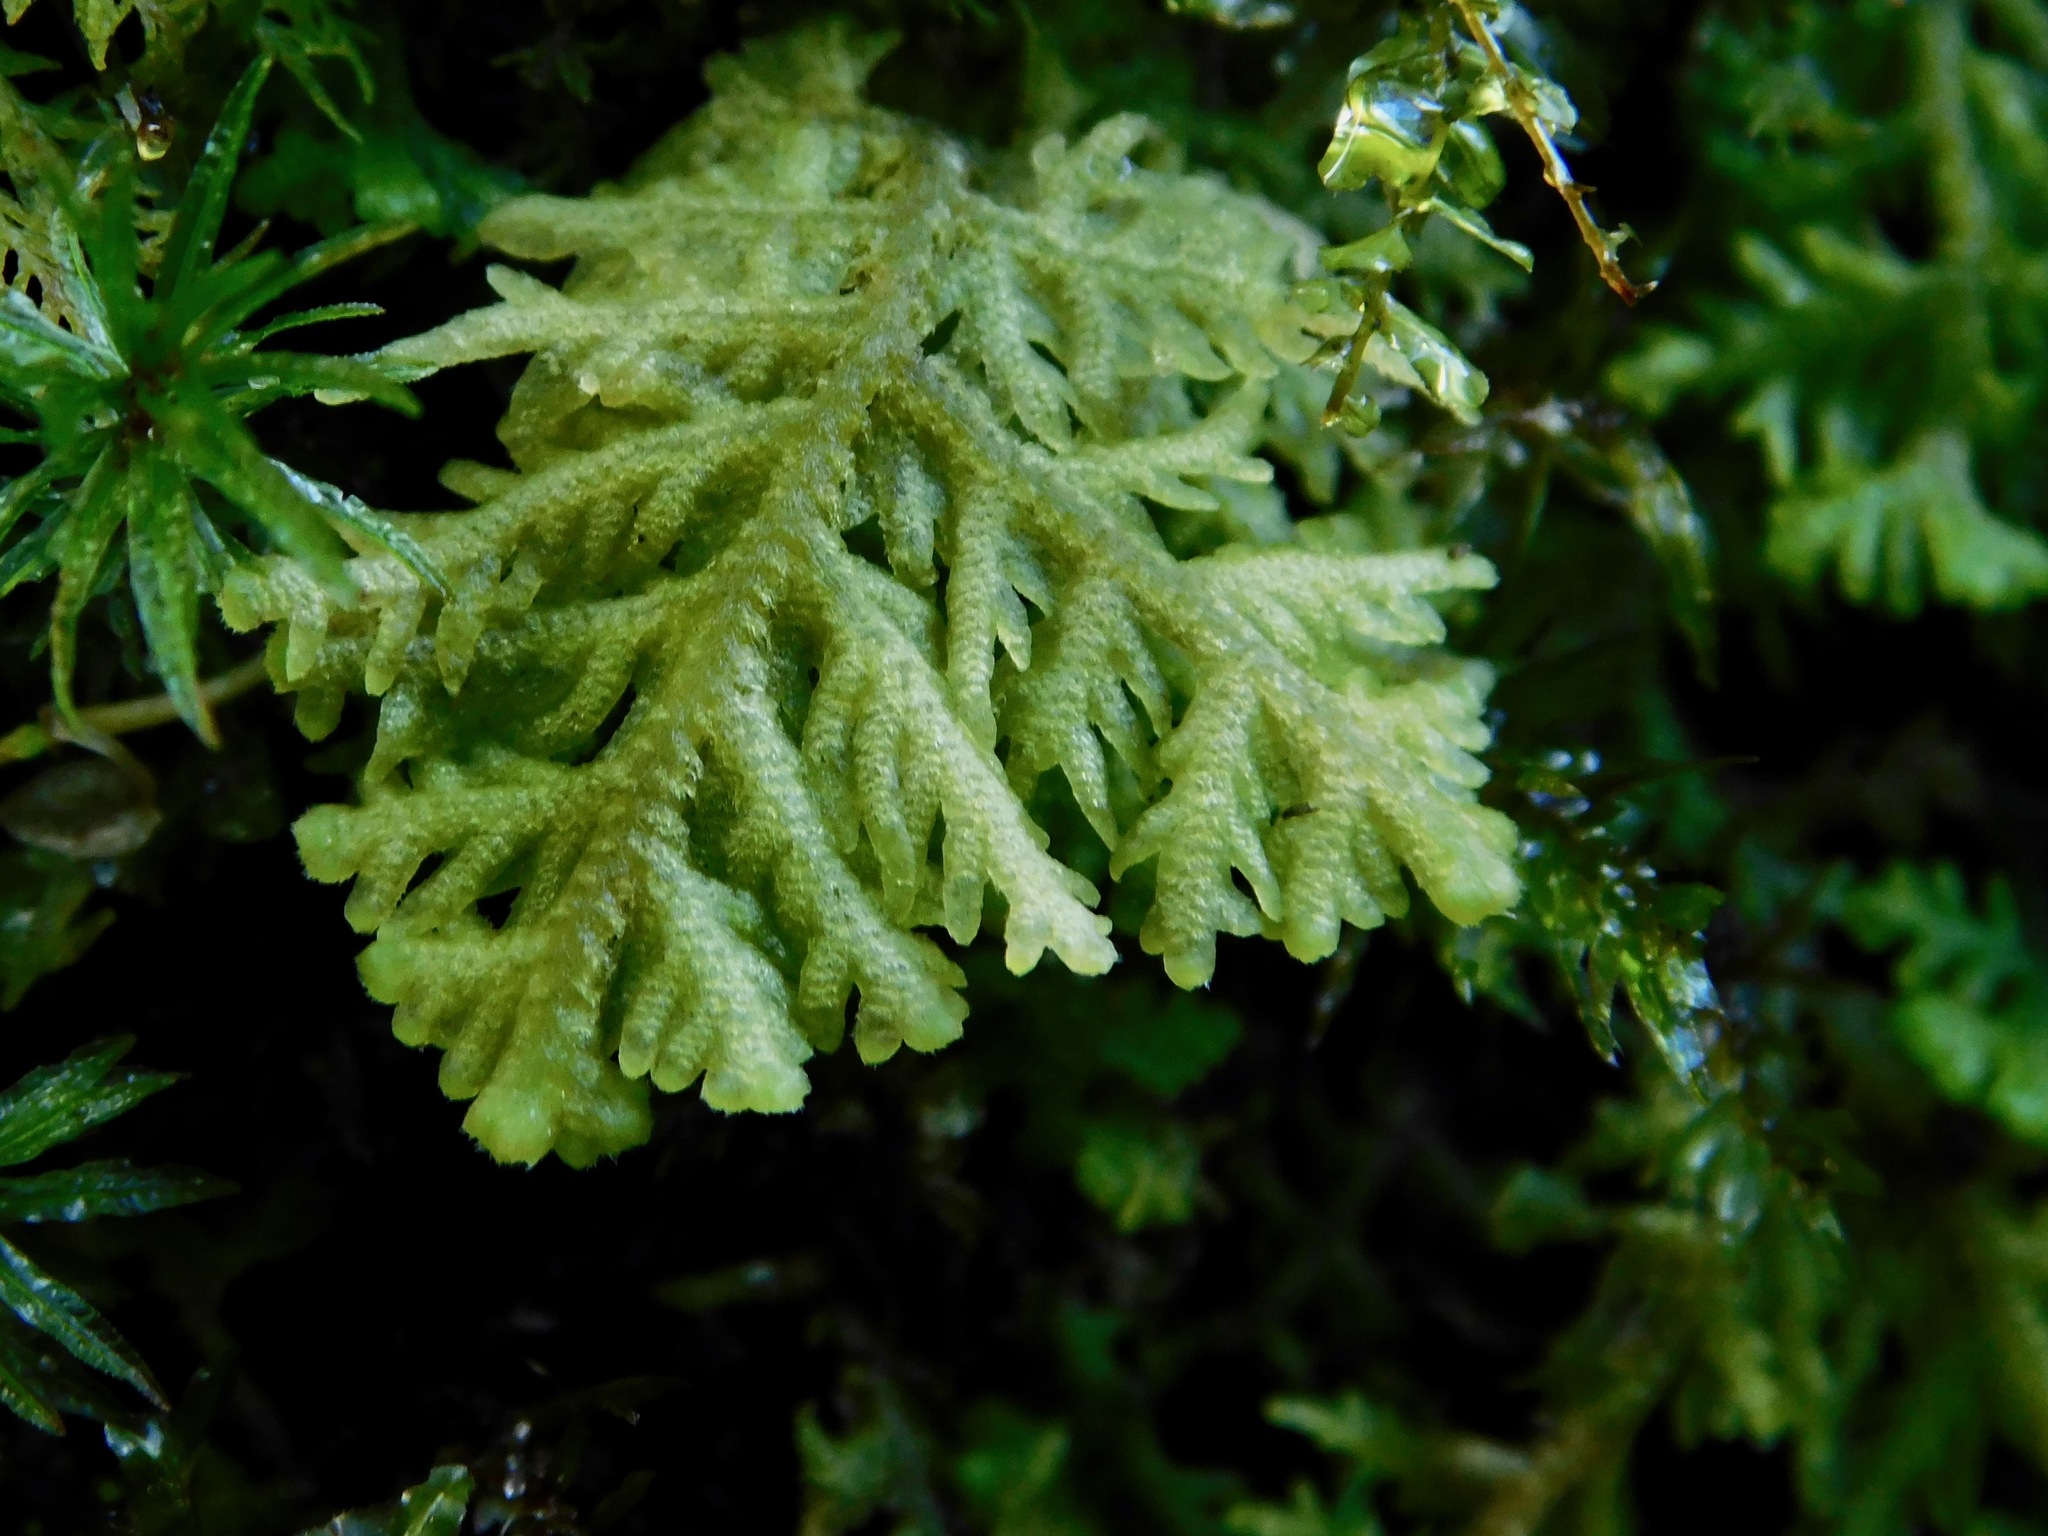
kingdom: Plantae
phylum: Marchantiophyta
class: Jungermanniopsida
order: Jungermanniales
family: Trichocoleaceae
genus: Trichocolea
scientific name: Trichocolea tomentella
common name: Woolly liverwort
